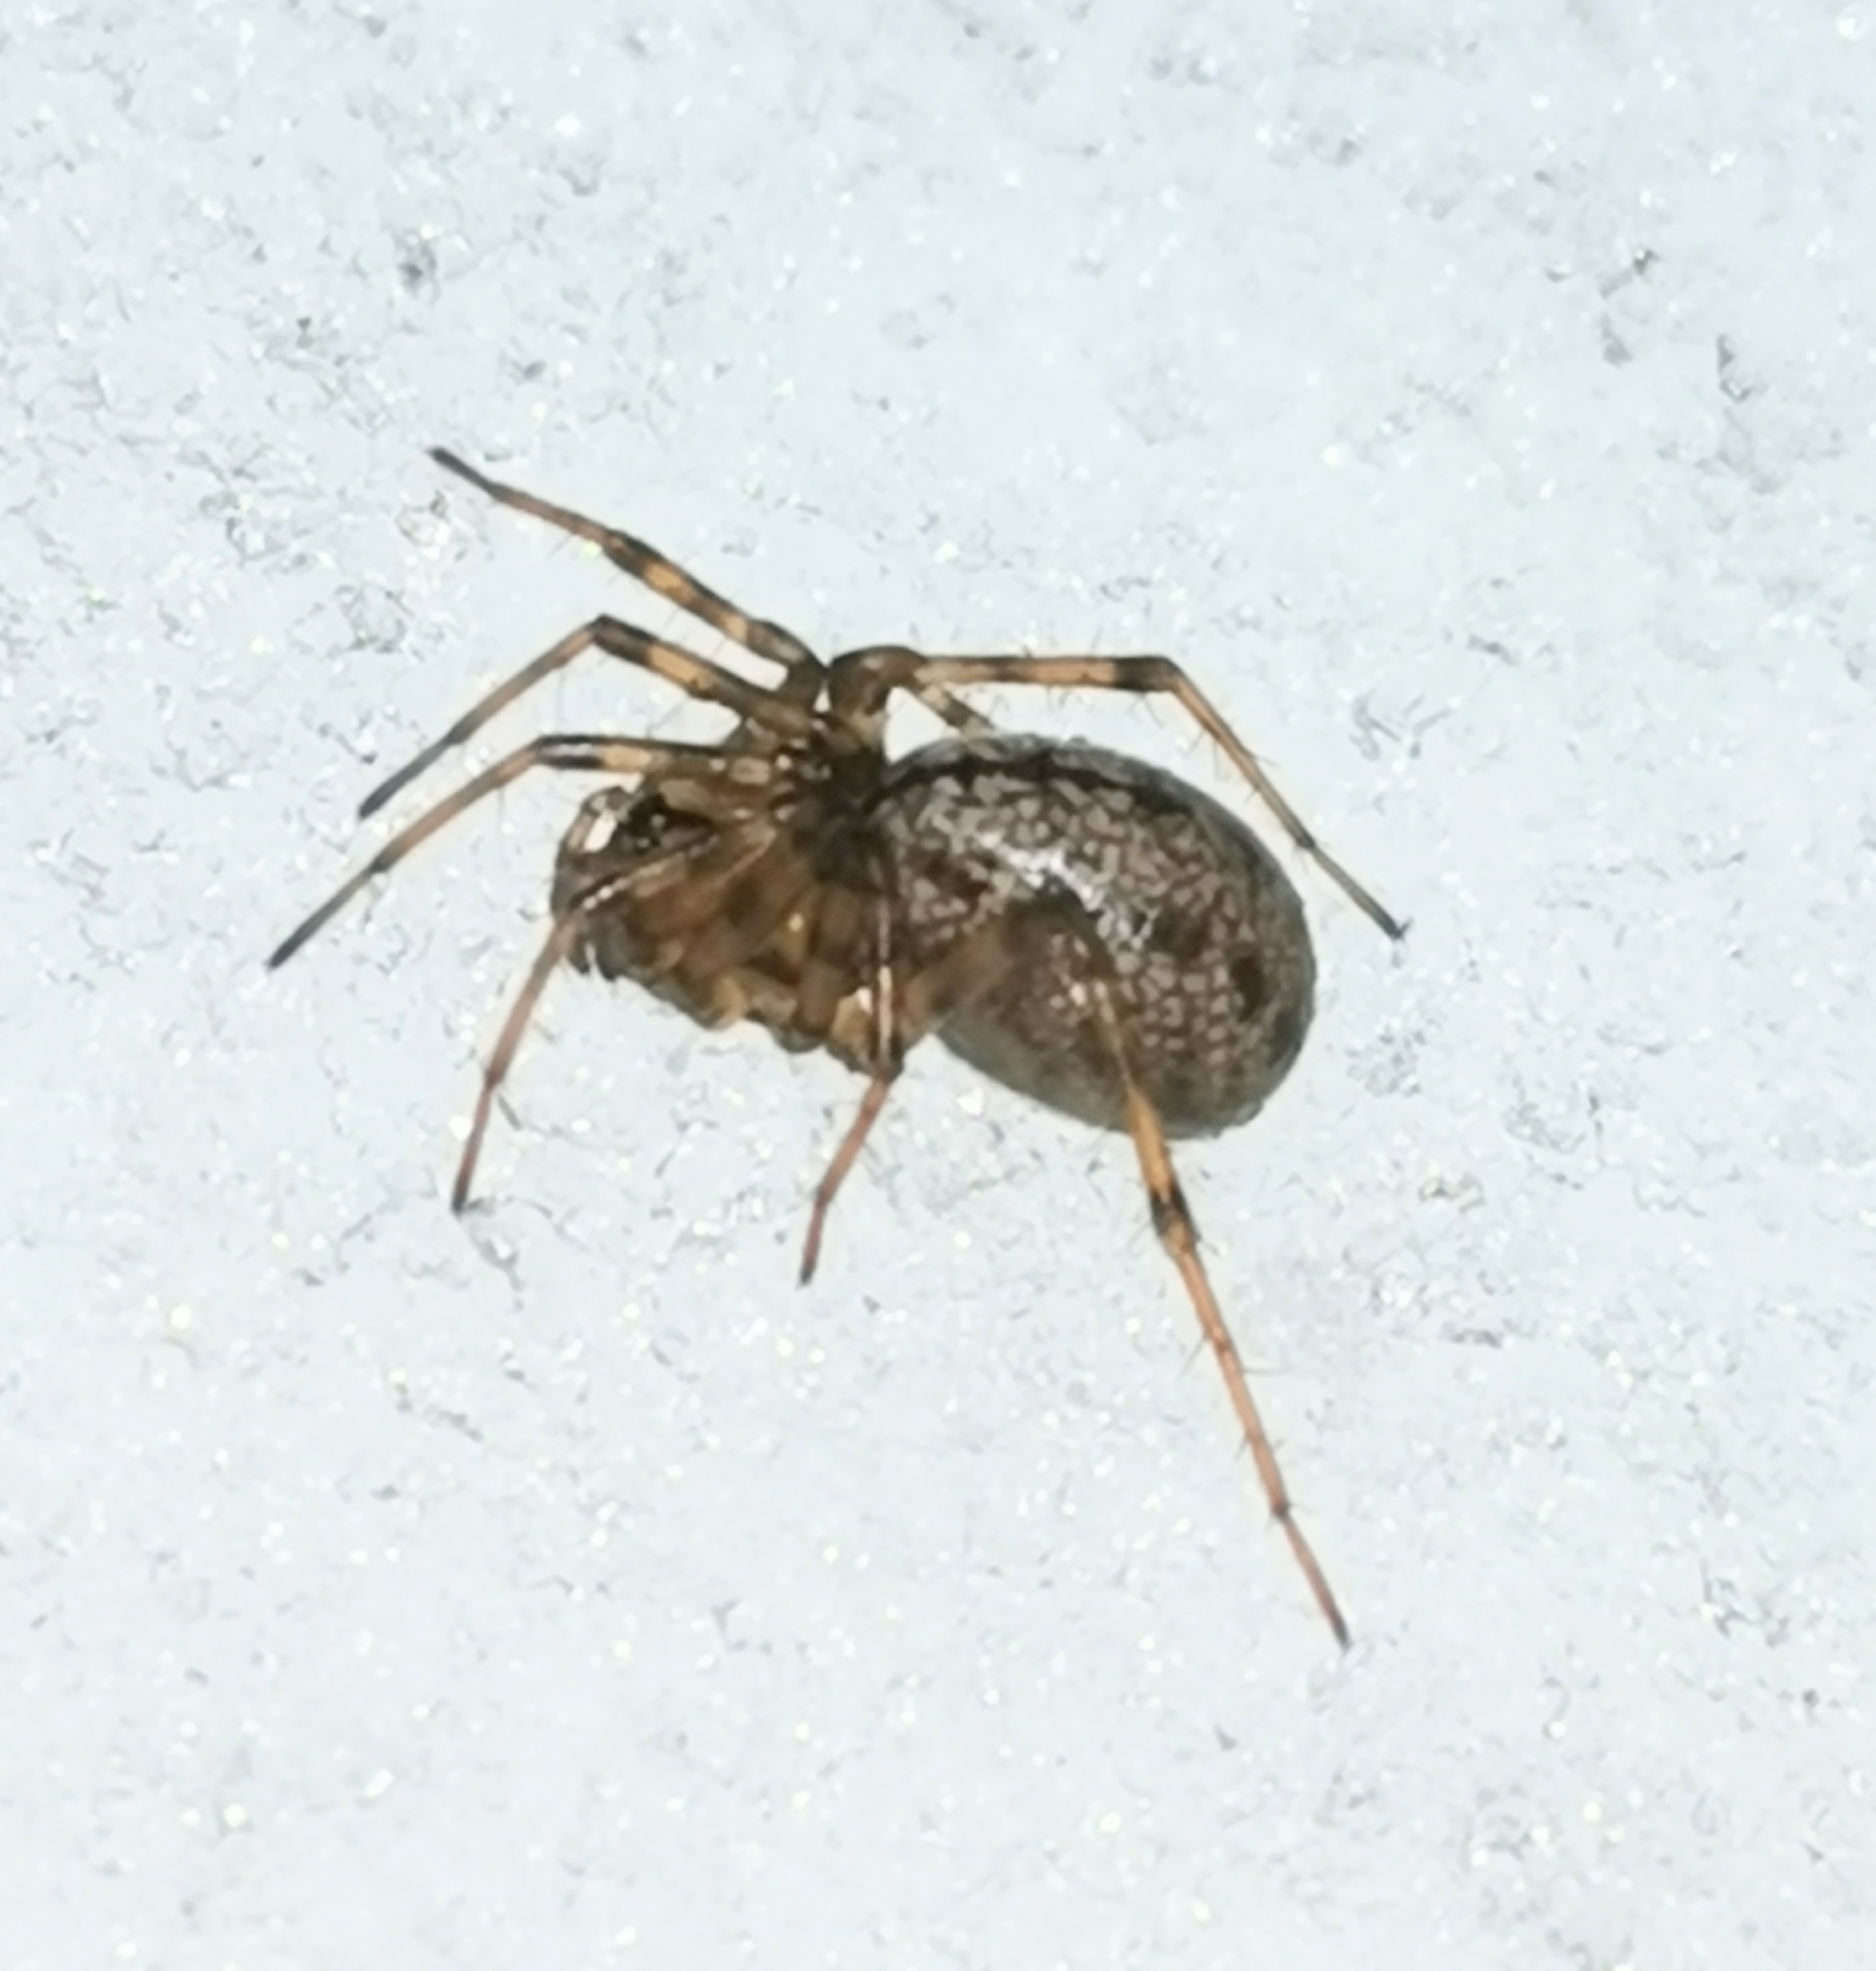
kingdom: Animalia
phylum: Arthropoda
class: Arachnida
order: Araneae
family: Linyphiidae
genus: Stemonyphantes
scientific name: Stemonyphantes lineatus
